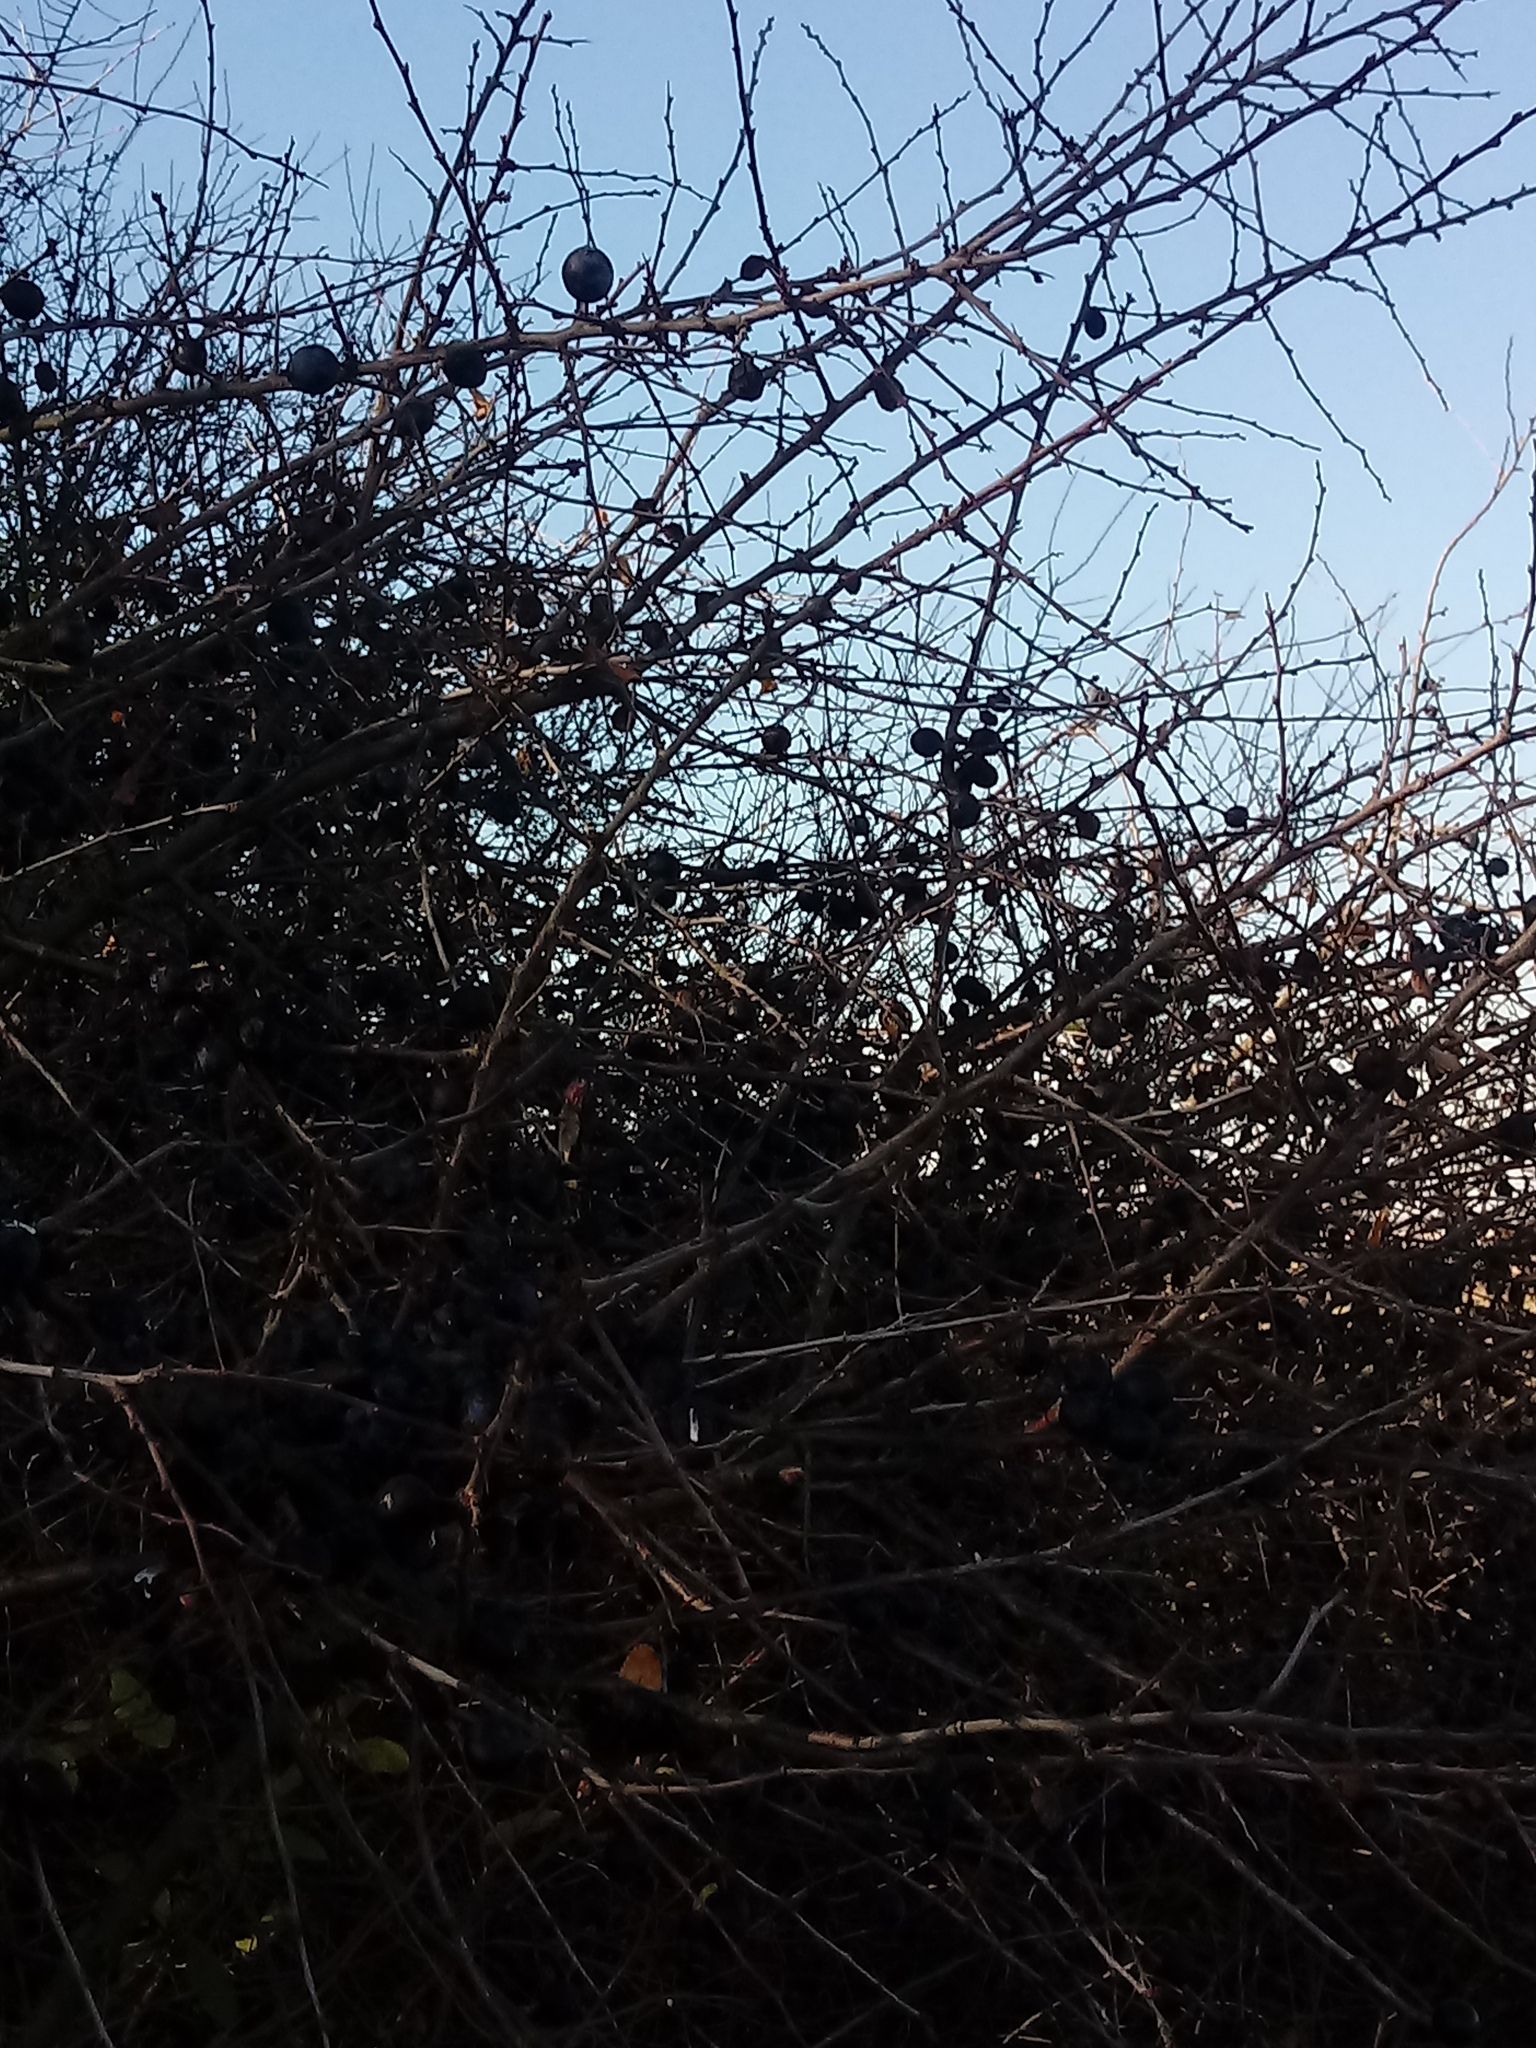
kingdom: Plantae
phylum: Tracheophyta
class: Magnoliopsida
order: Rosales
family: Rosaceae
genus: Prunus
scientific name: Prunus spinosa
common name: Blackthorn
